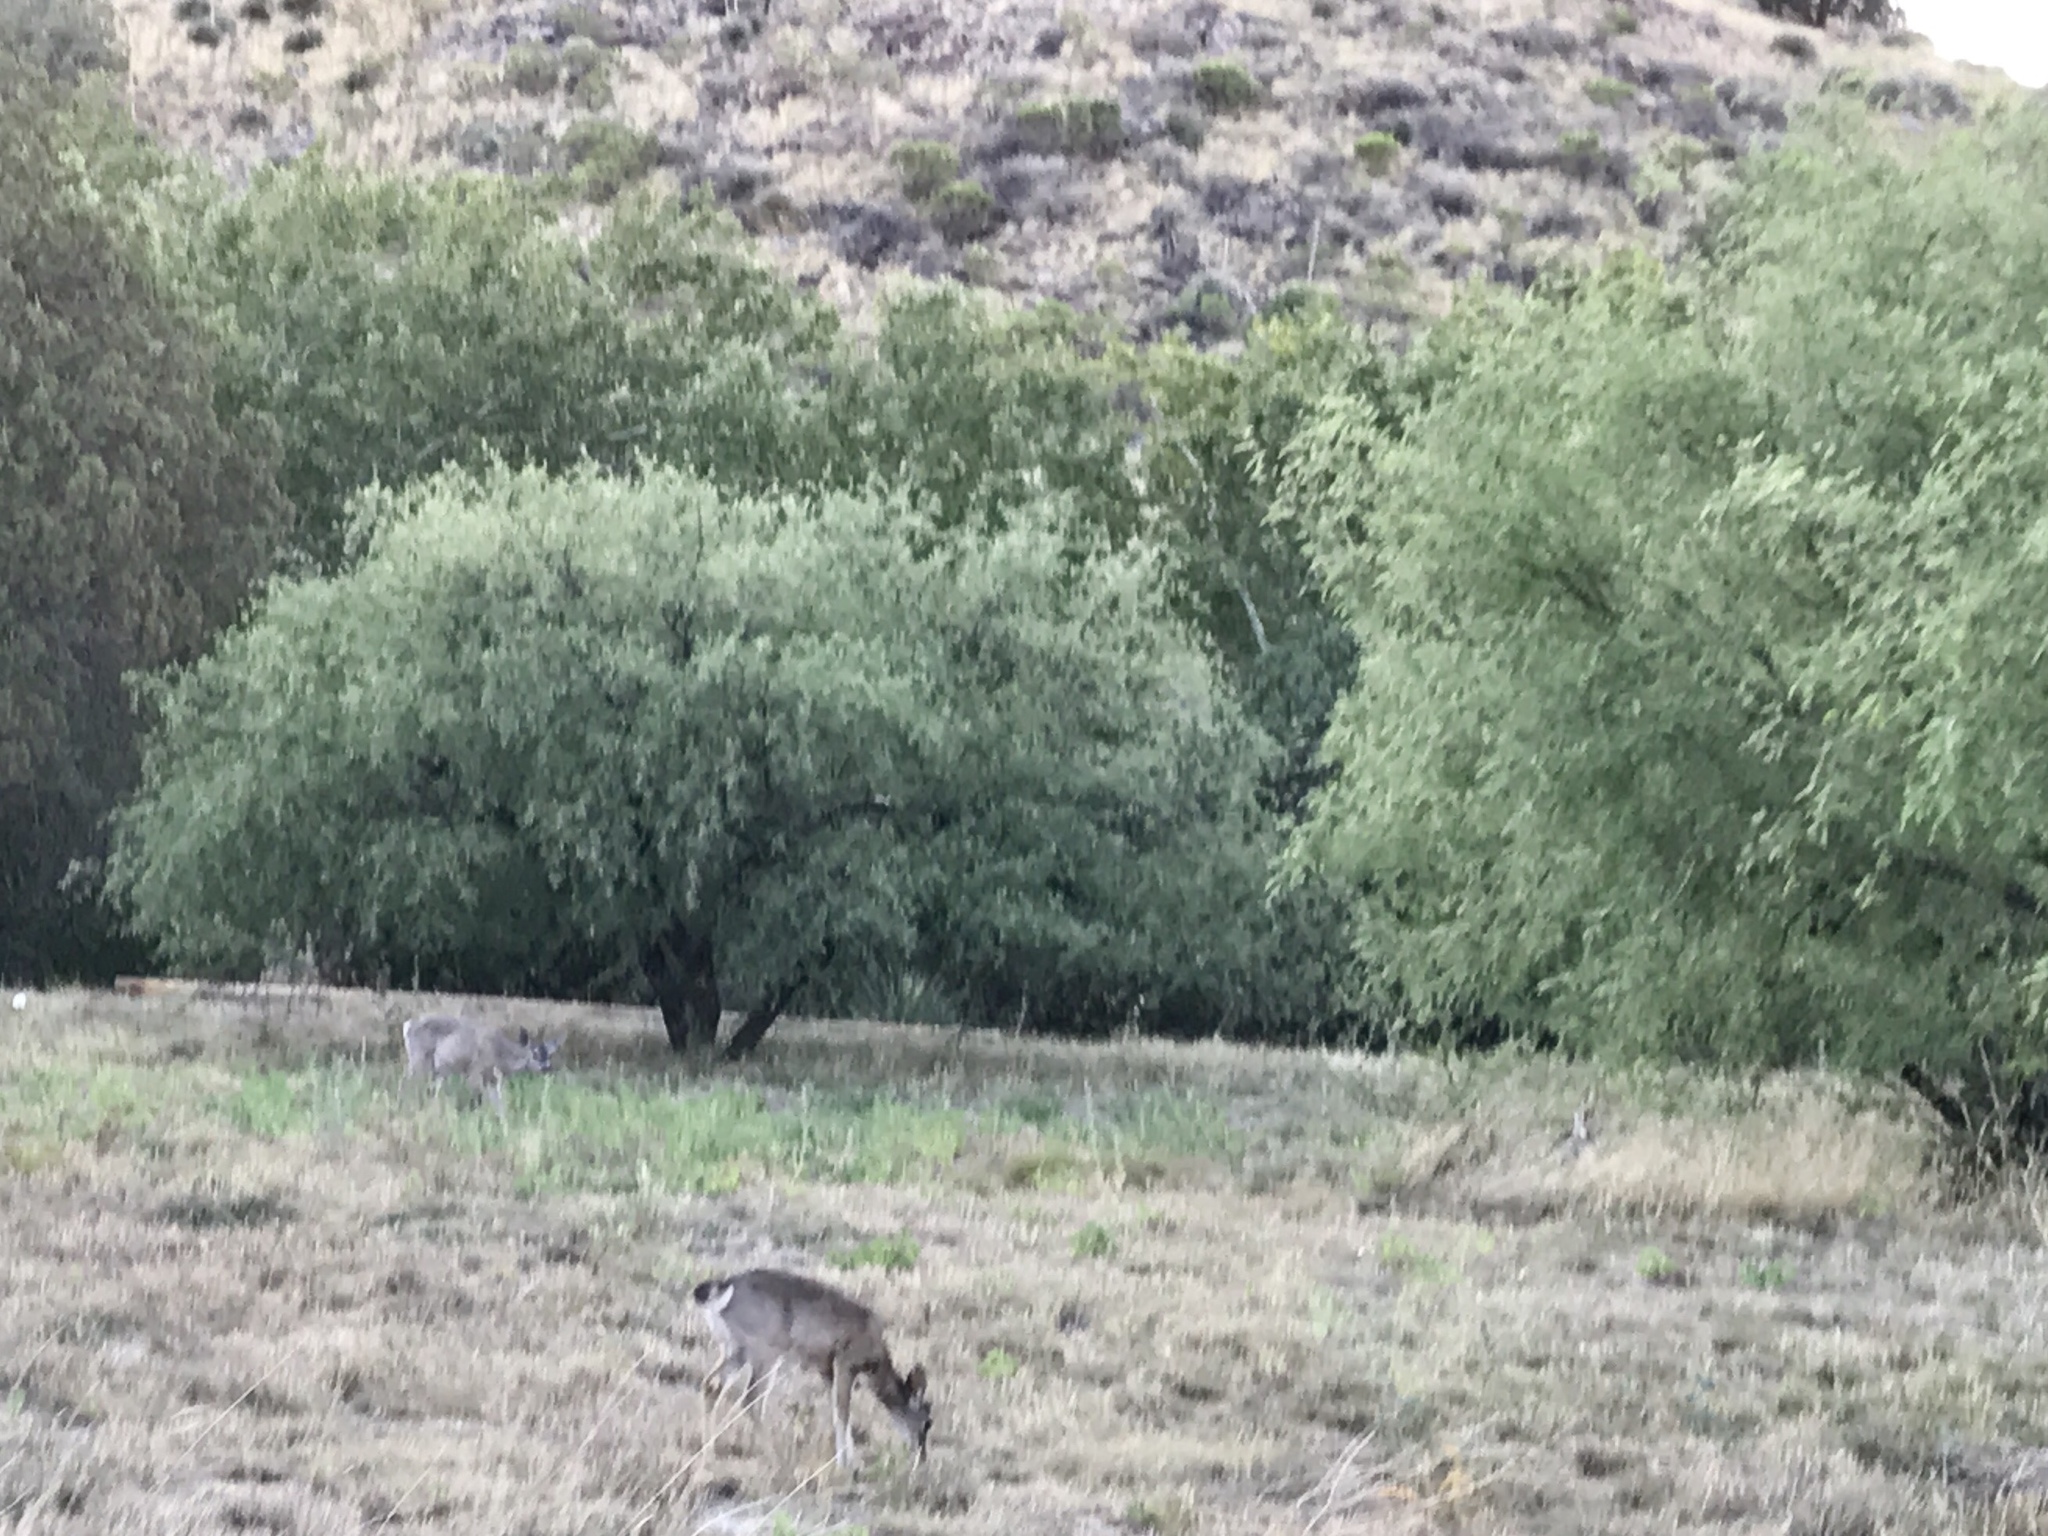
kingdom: Animalia
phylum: Chordata
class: Mammalia
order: Artiodactyla
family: Cervidae
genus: Odocoileus
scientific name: Odocoileus virginianus
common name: White-tailed deer
